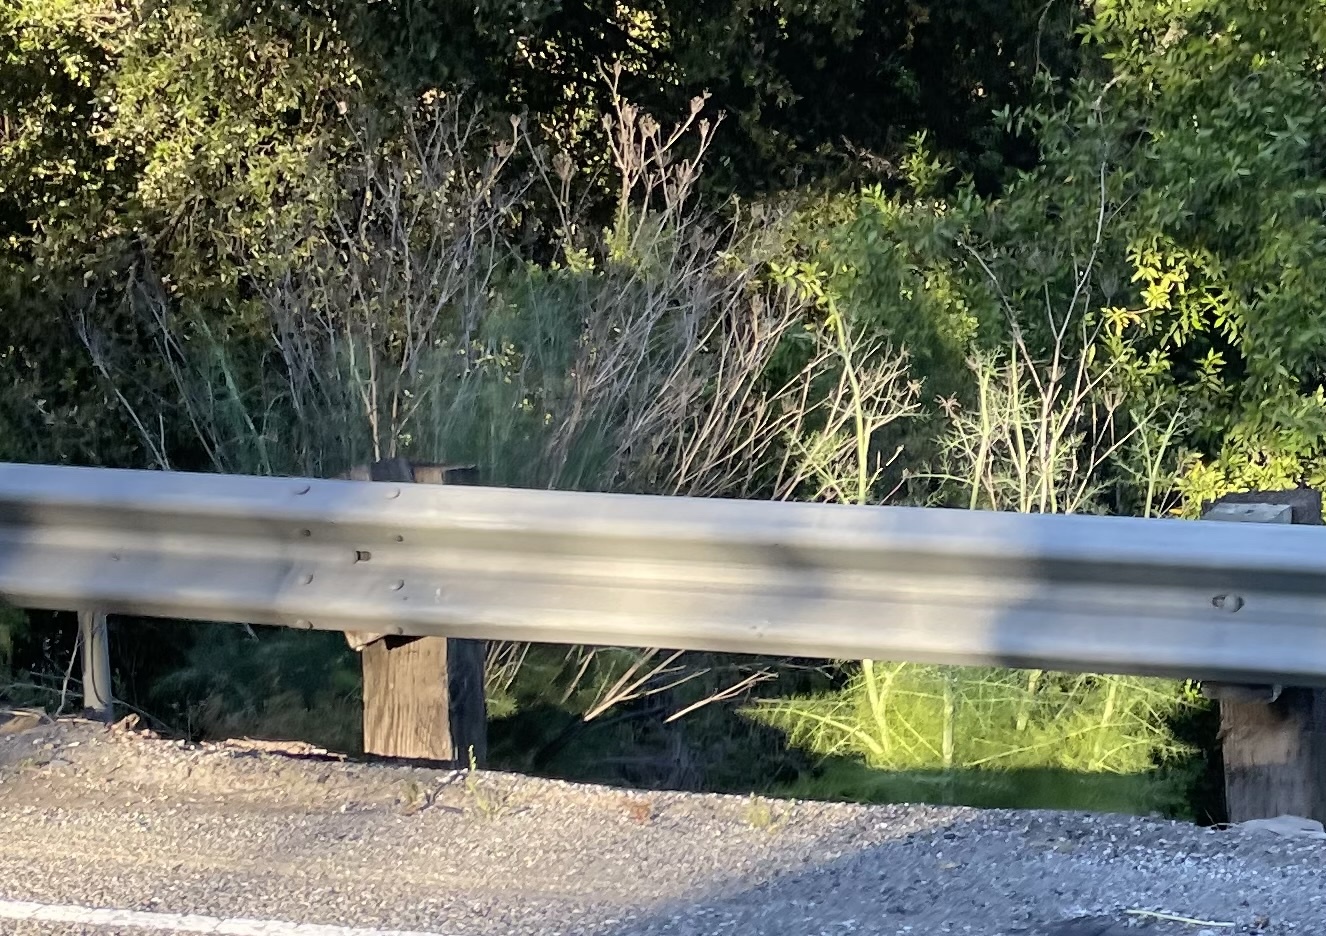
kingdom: Plantae
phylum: Tracheophyta
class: Magnoliopsida
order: Apiales
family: Apiaceae
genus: Foeniculum
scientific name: Foeniculum vulgare
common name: Fennel
